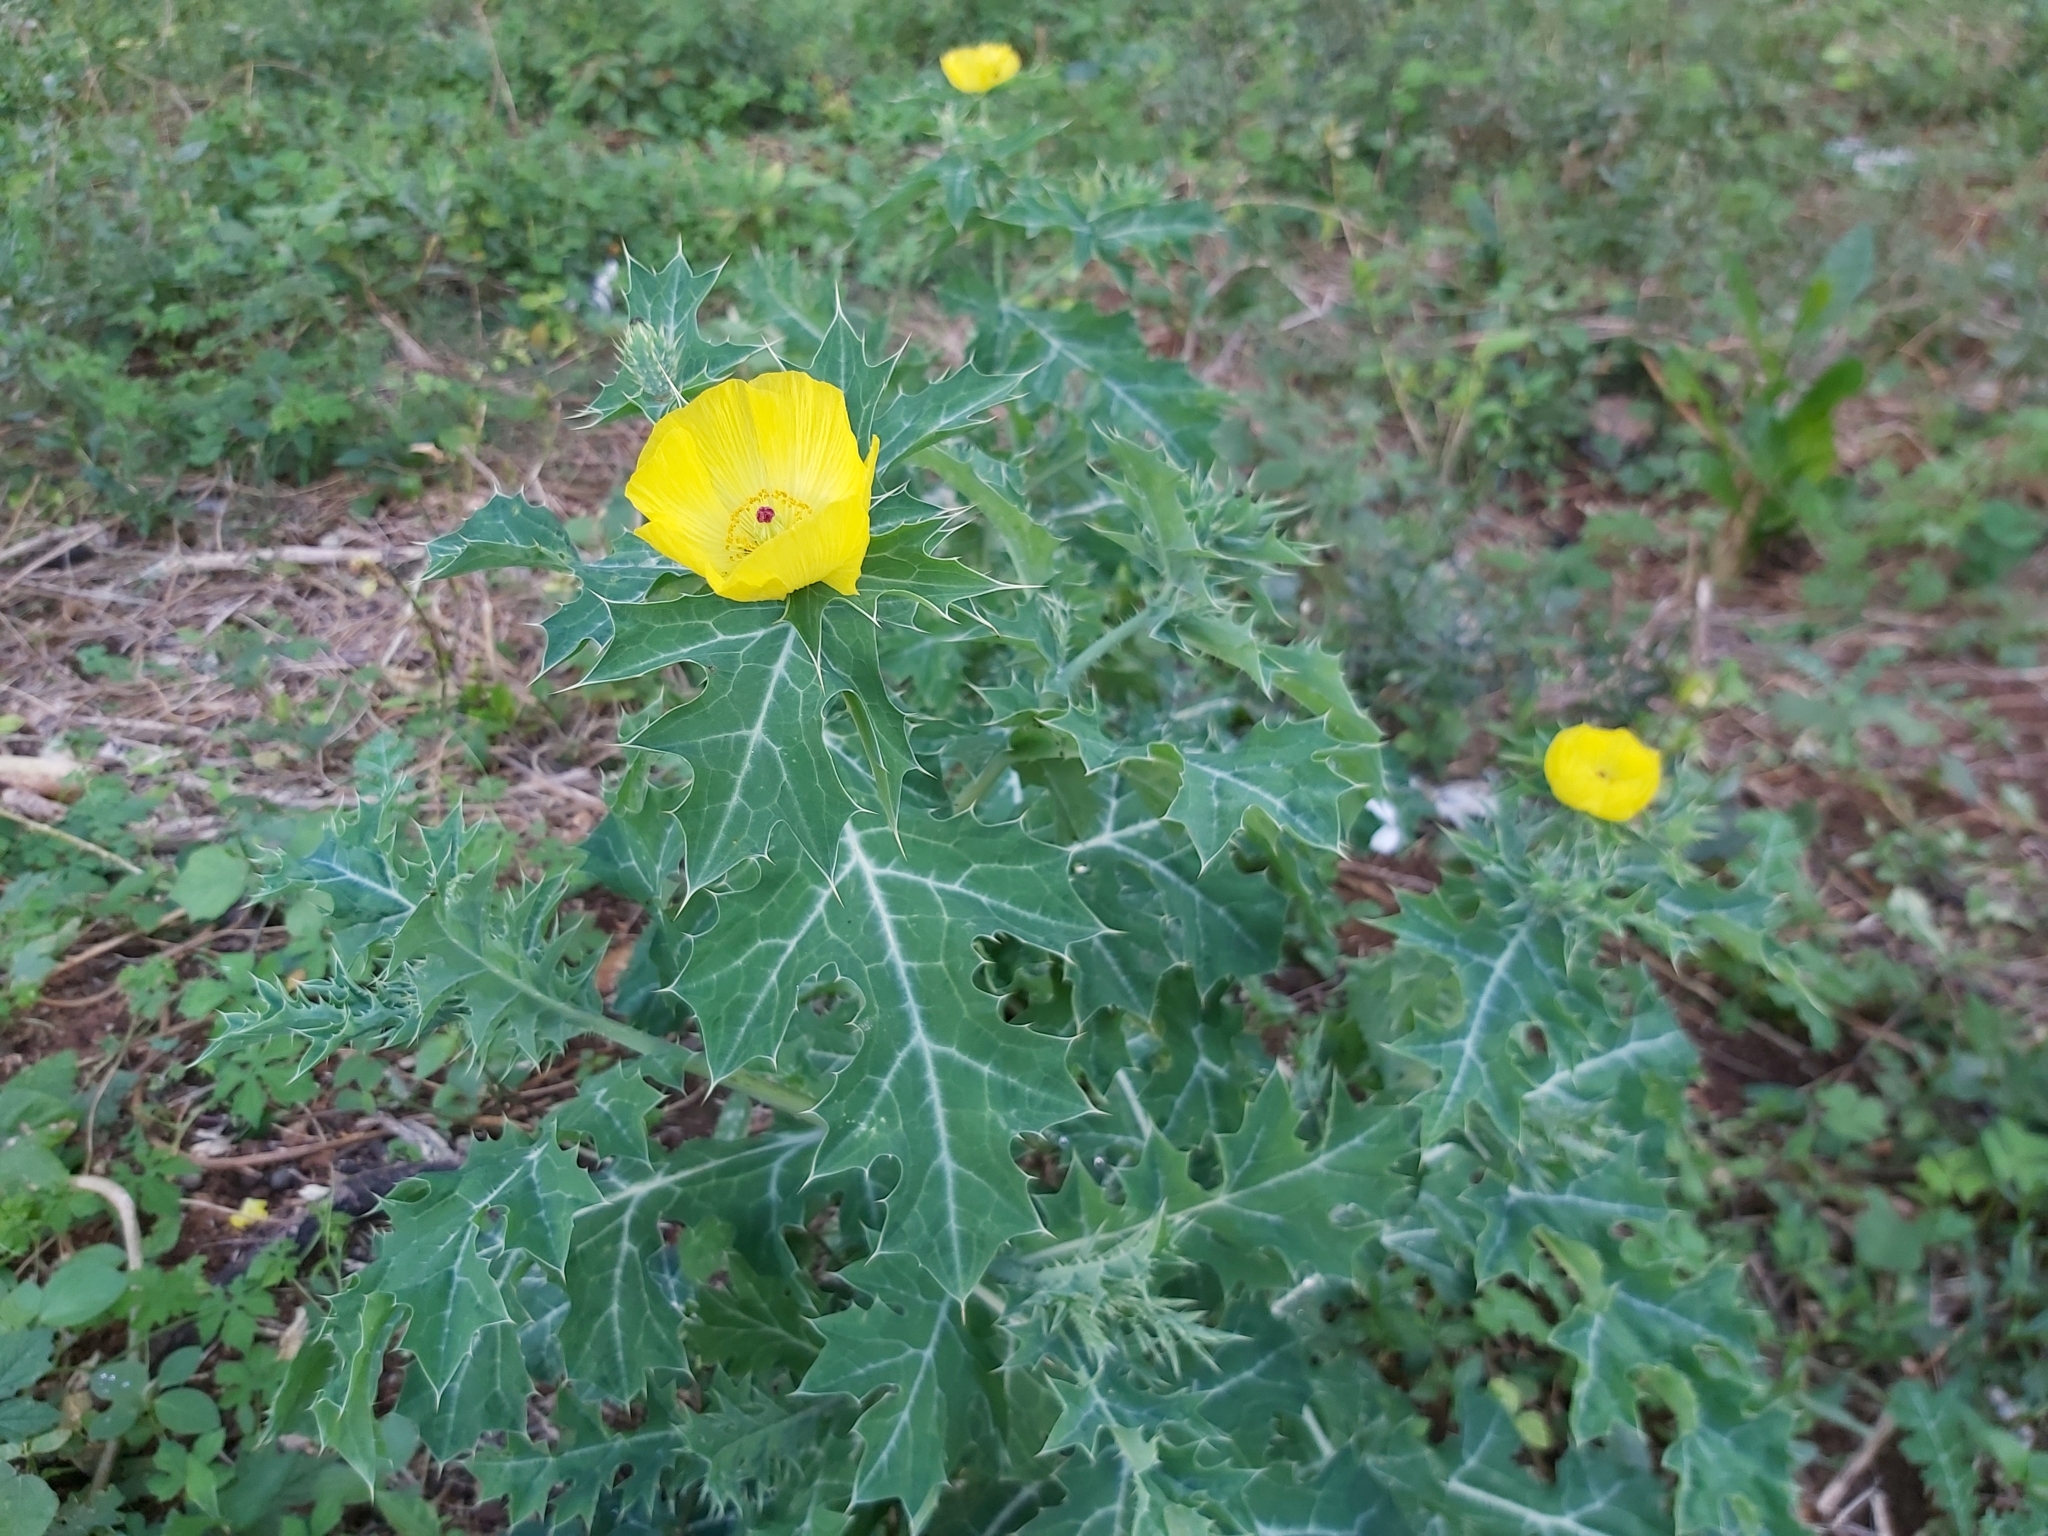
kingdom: Plantae
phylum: Tracheophyta
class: Magnoliopsida
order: Ranunculales
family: Papaveraceae
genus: Argemone
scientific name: Argemone mexicana
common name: Mexican poppy
